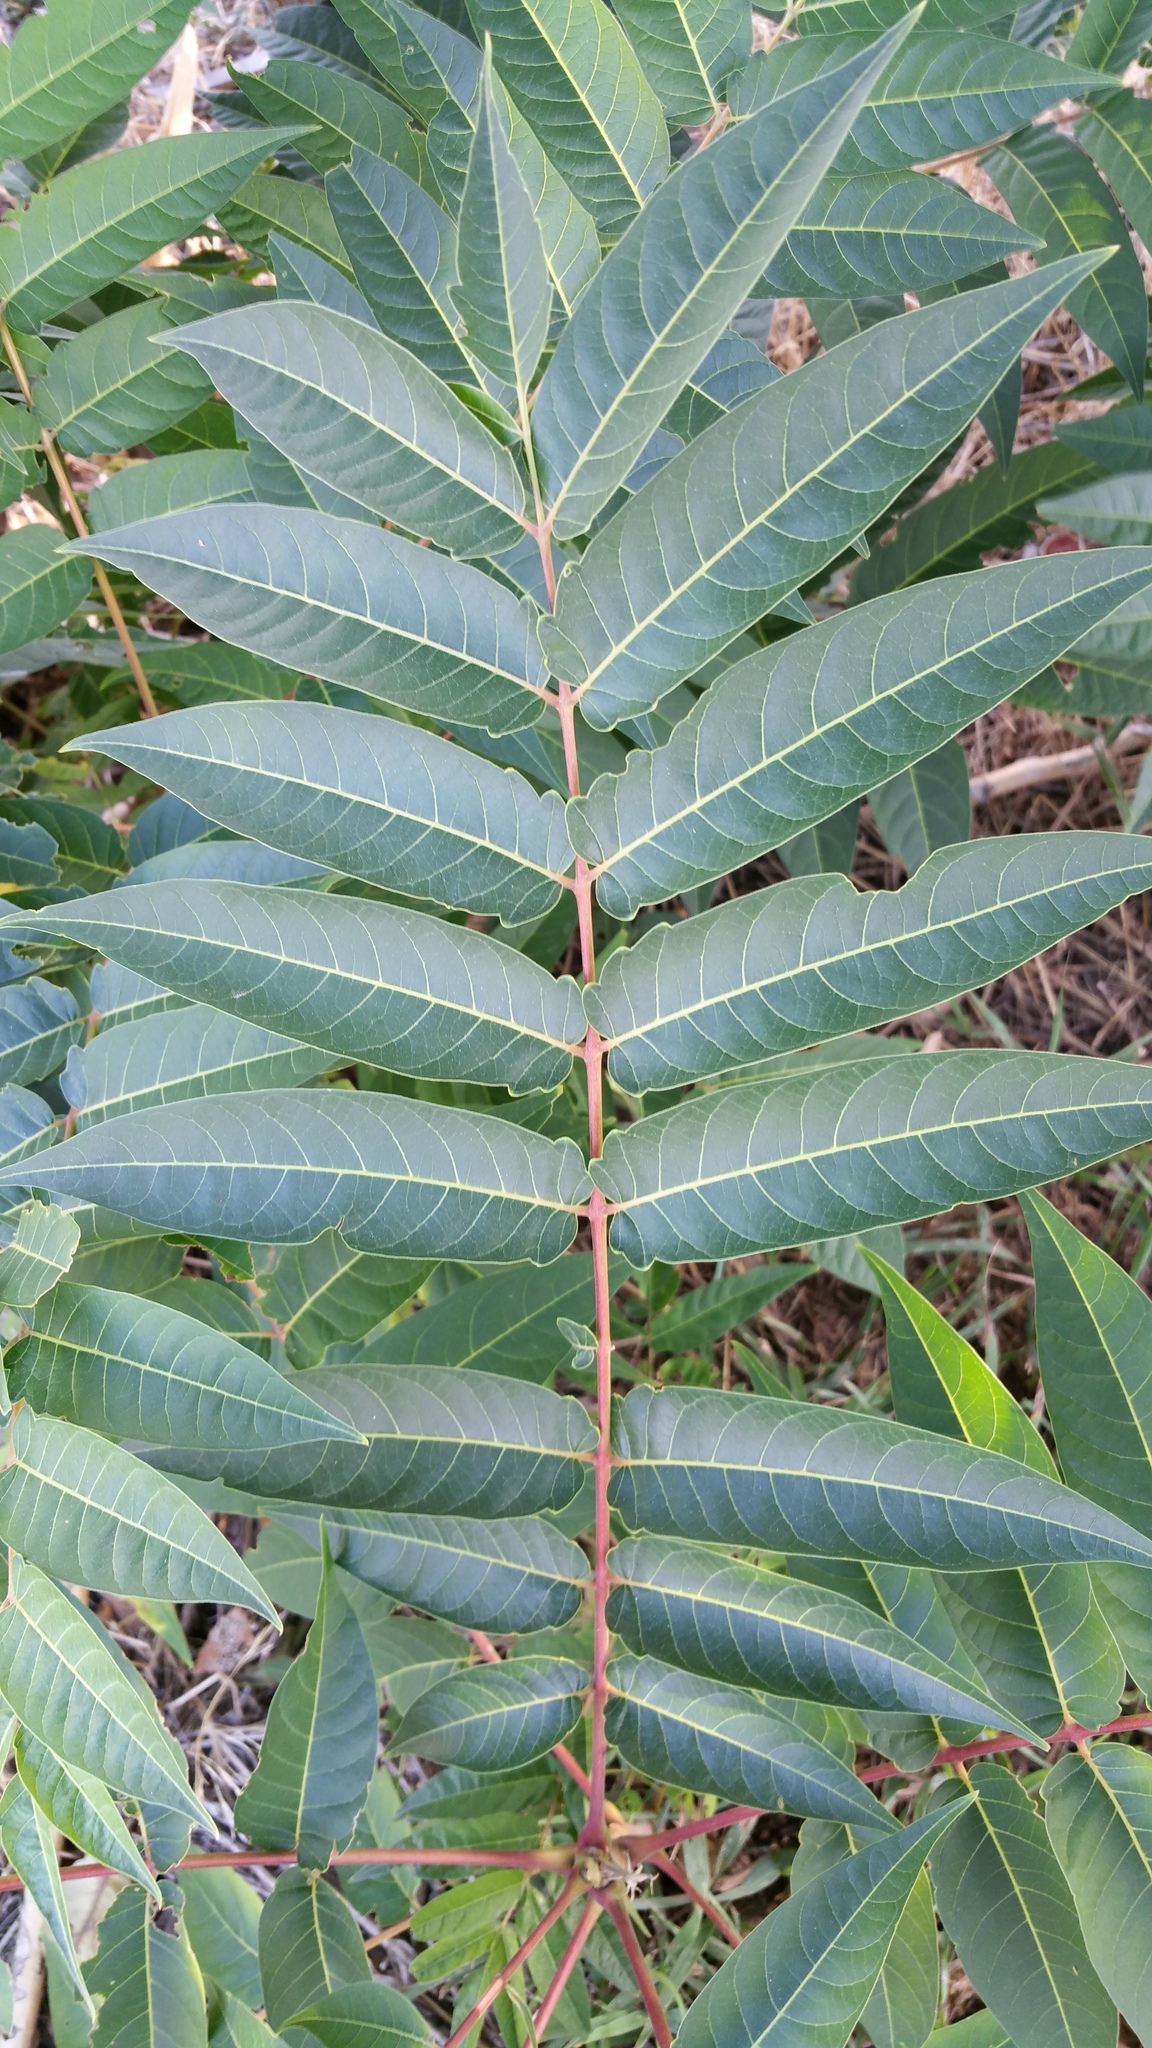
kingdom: Plantae
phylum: Tracheophyta
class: Magnoliopsida
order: Sapindales
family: Simaroubaceae
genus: Ailanthus
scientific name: Ailanthus altissima
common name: Tree-of-heaven
